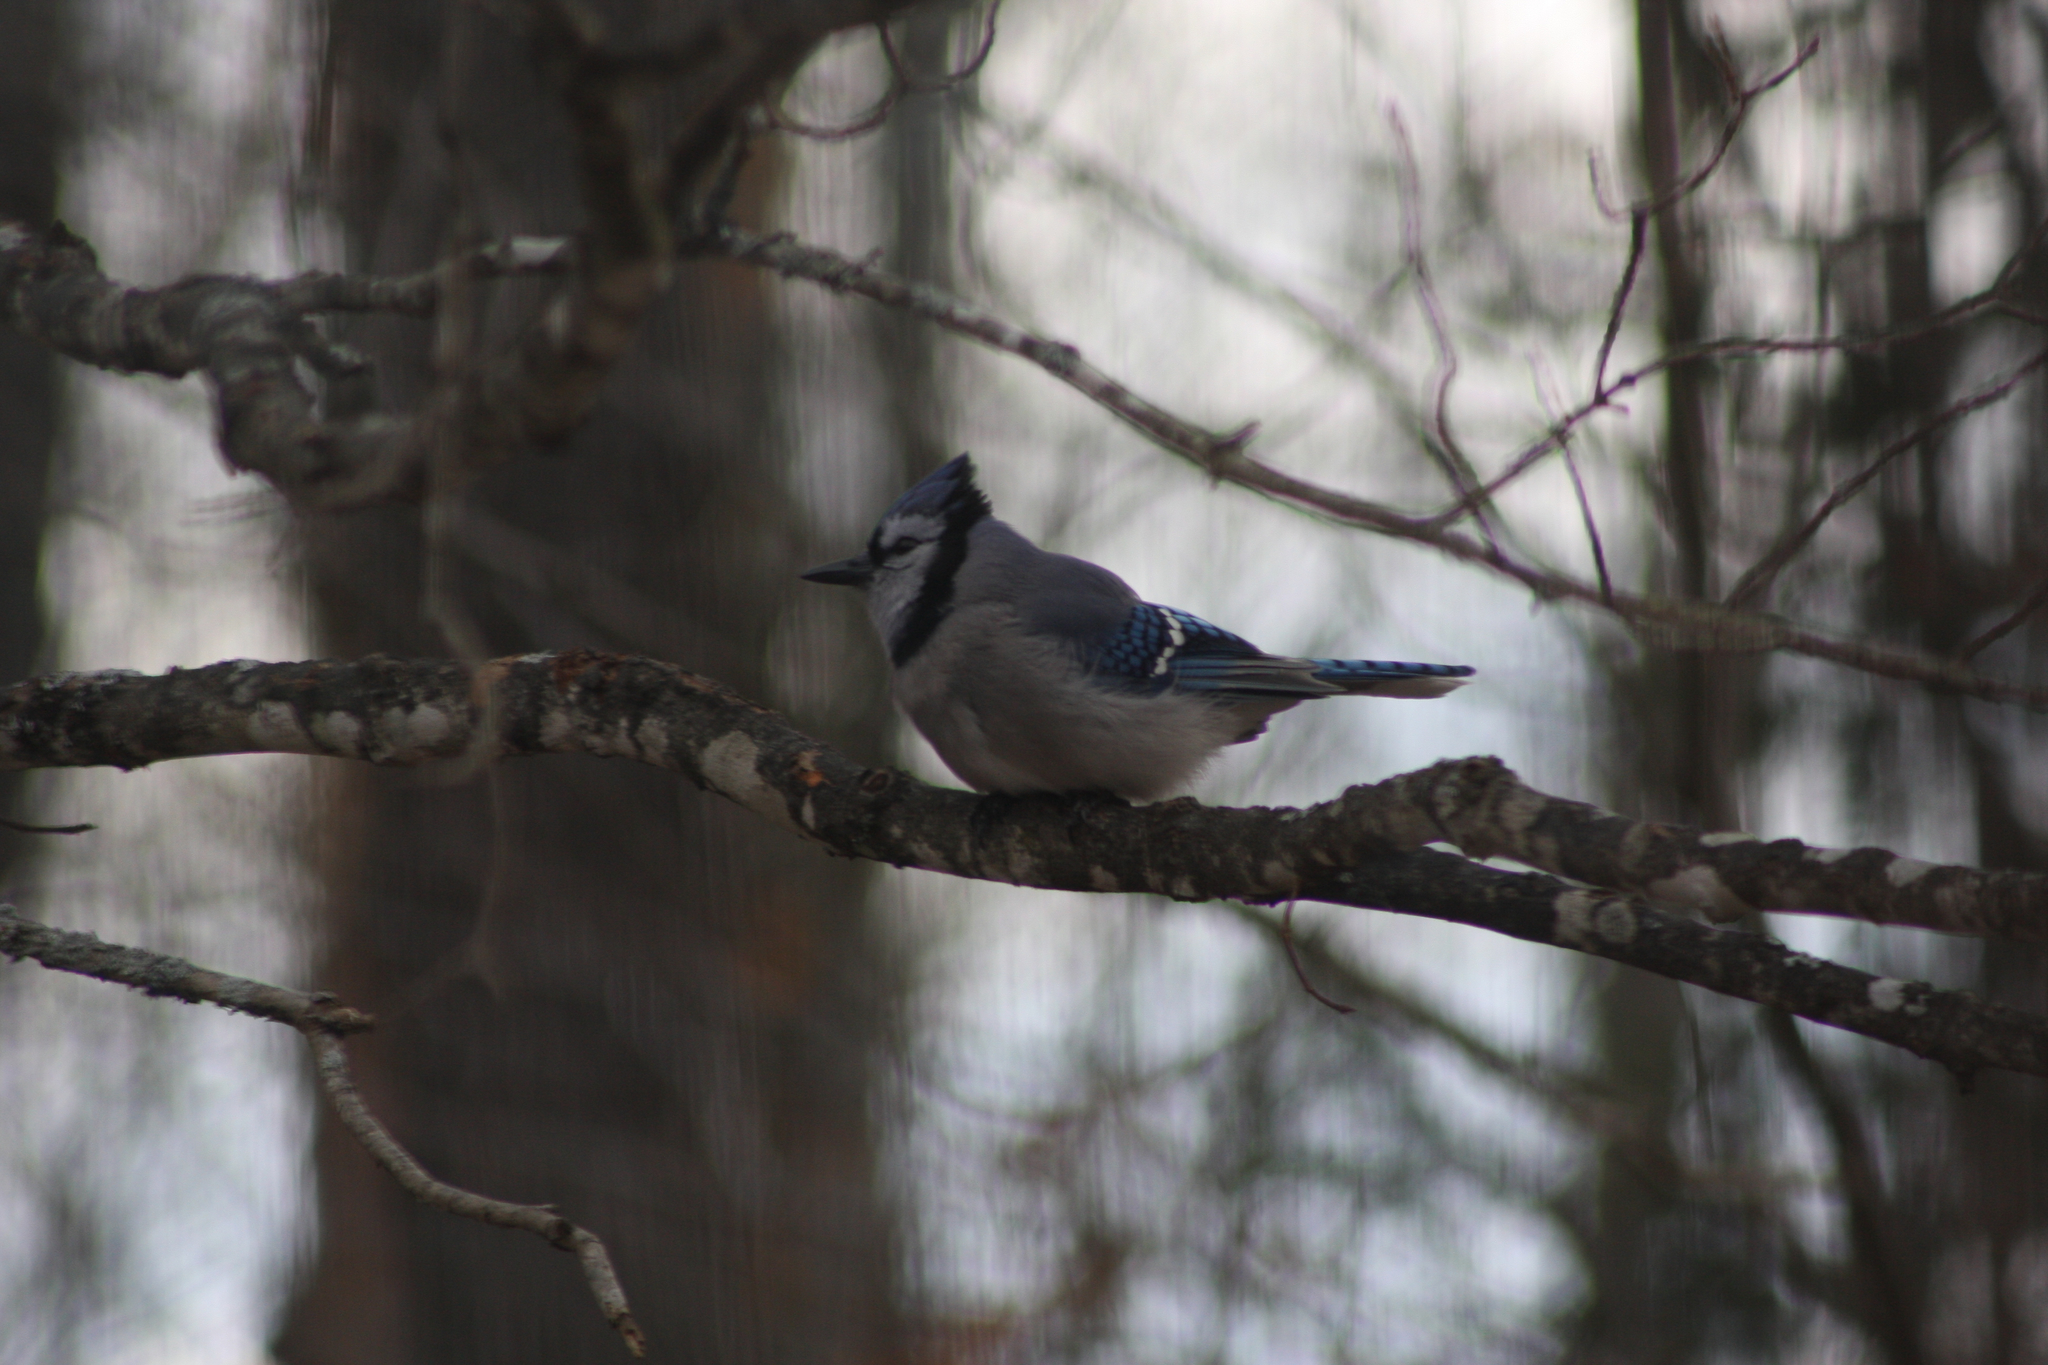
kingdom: Animalia
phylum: Chordata
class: Aves
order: Passeriformes
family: Corvidae
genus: Cyanocitta
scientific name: Cyanocitta cristata
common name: Blue jay
